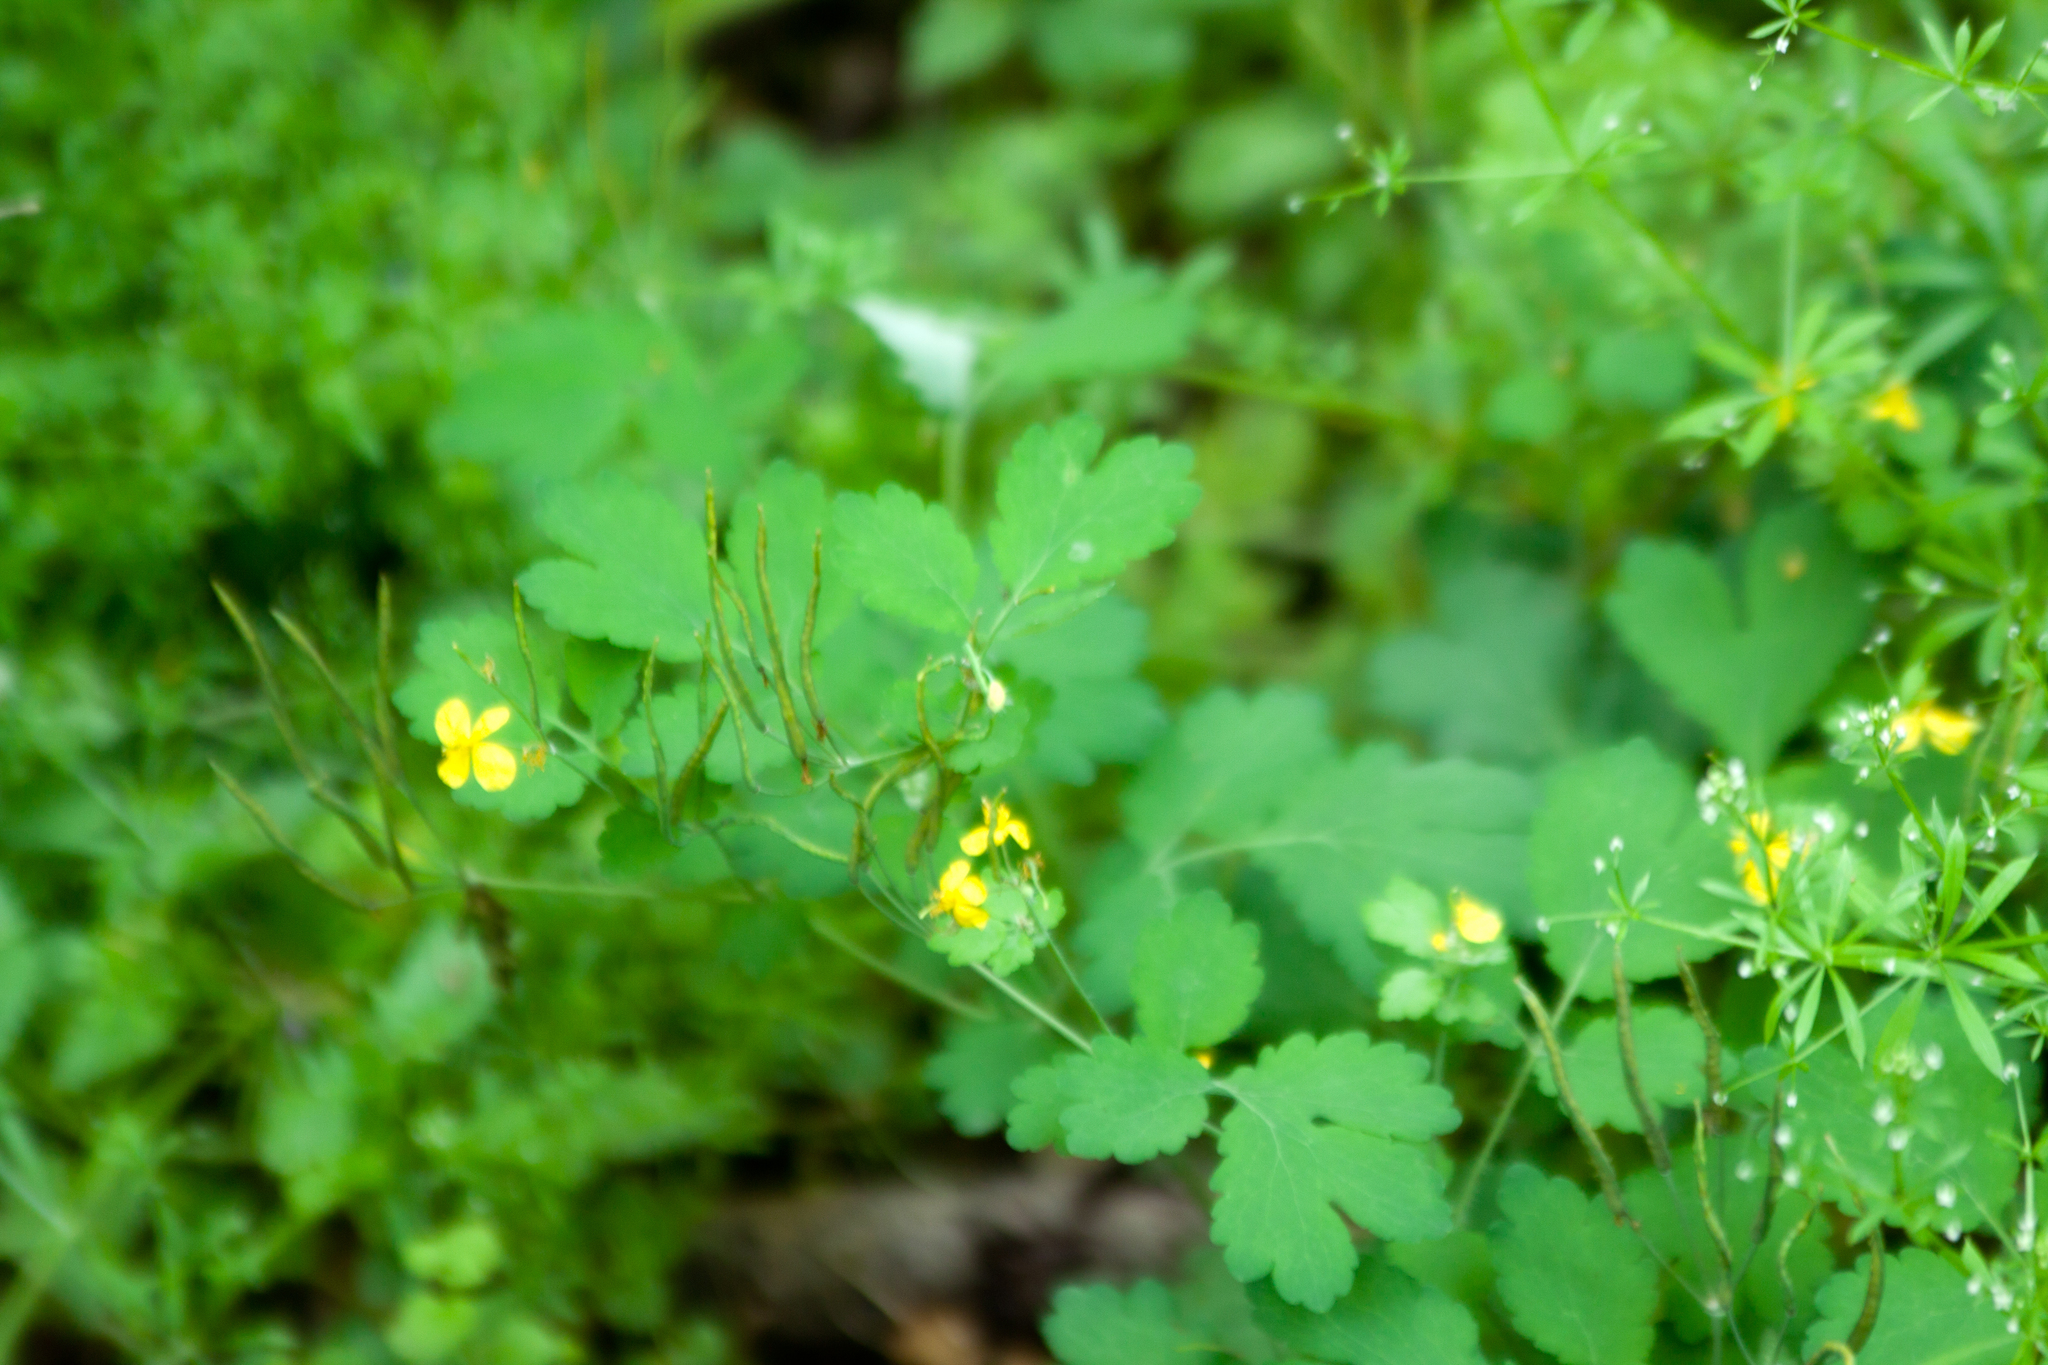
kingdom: Plantae
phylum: Tracheophyta
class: Magnoliopsida
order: Ranunculales
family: Papaveraceae
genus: Chelidonium
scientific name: Chelidonium majus
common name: Greater celandine
